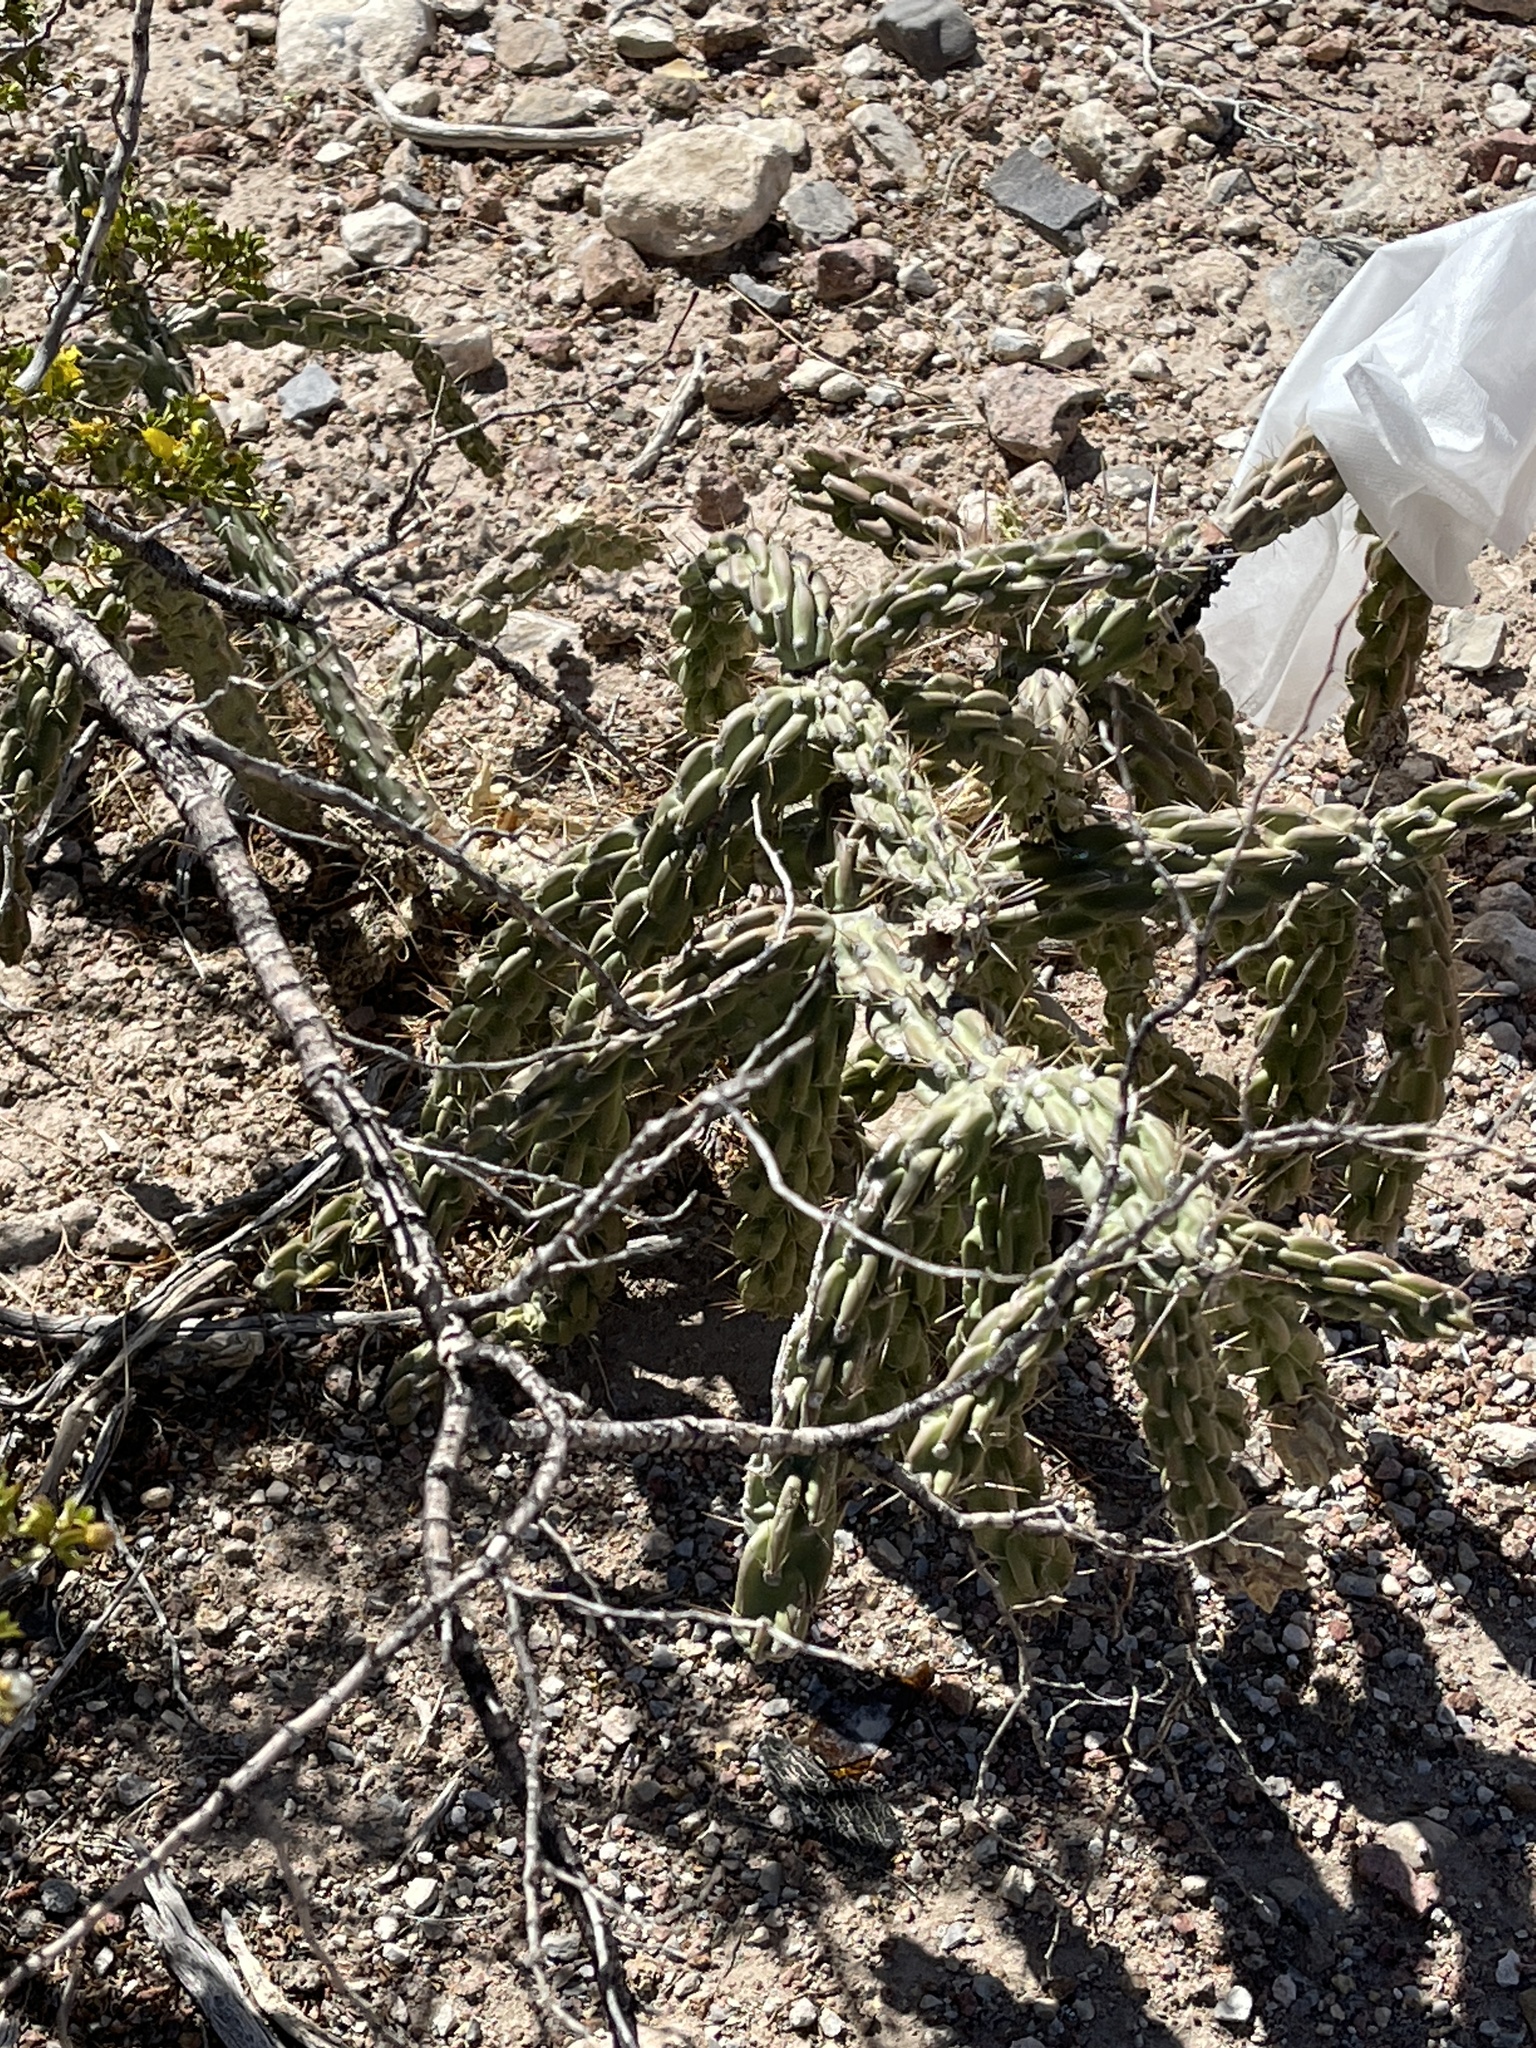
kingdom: Plantae
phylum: Tracheophyta
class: Magnoliopsida
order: Caryophyllales
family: Cactaceae
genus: Cylindropuntia
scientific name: Cylindropuntia imbricata
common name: Candelabrum cactus
